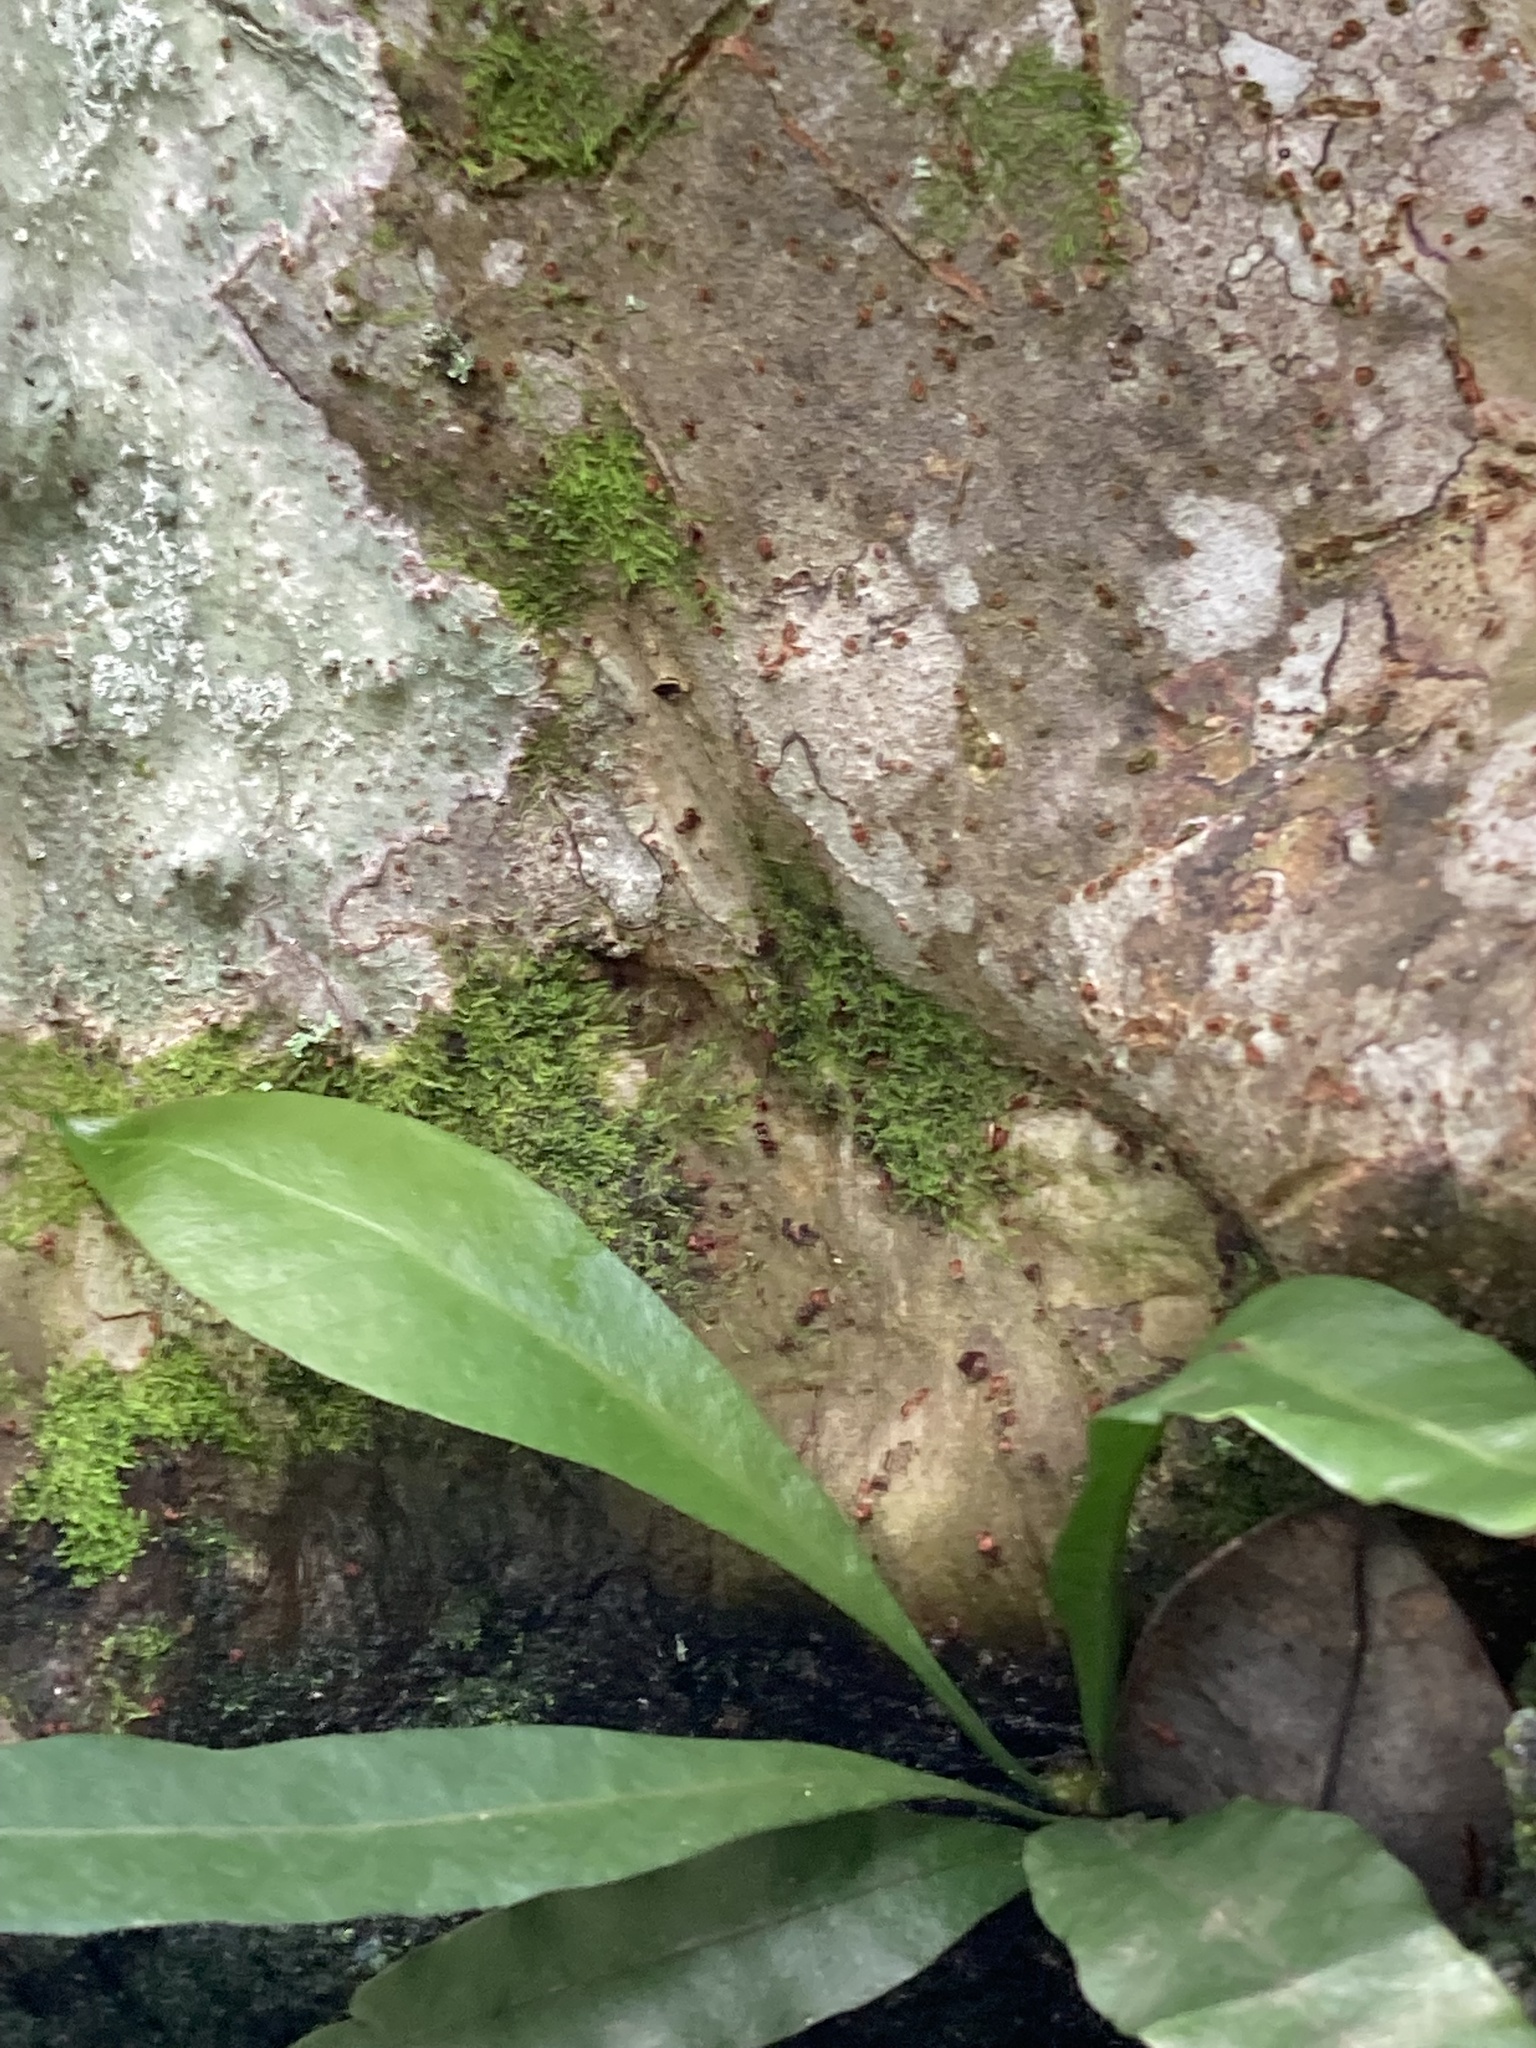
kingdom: Plantae
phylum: Tracheophyta
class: Polypodiopsida
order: Polypodiales
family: Polypodiaceae
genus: Campyloneurum
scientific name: Campyloneurum phyllitidis
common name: Cow-tongue fern
